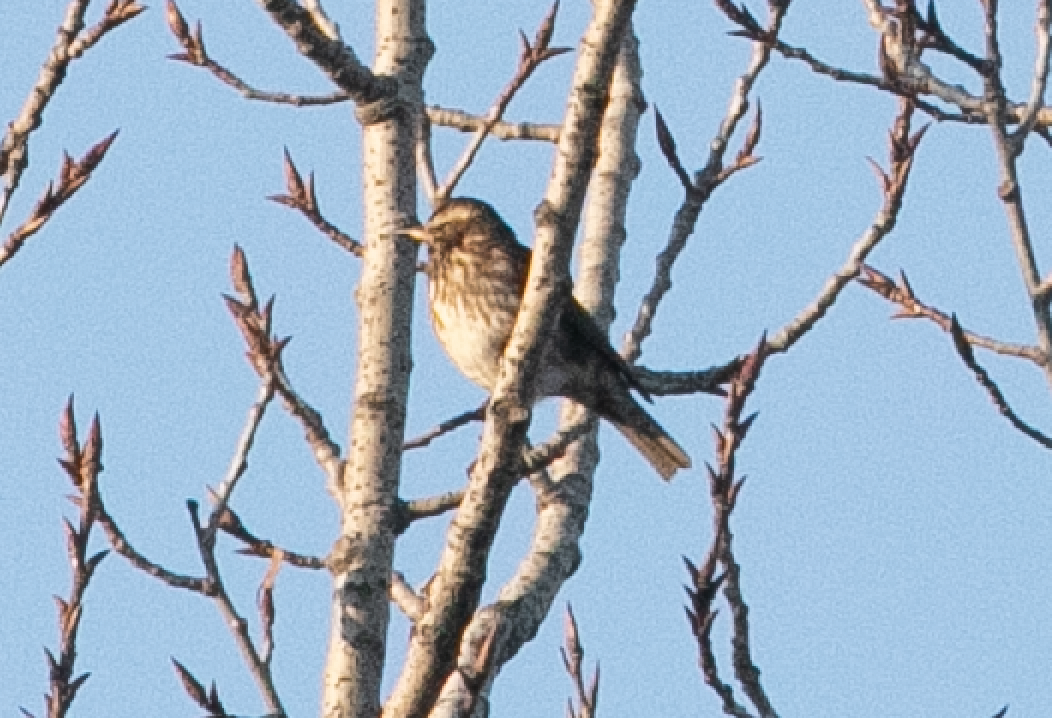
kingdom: Animalia
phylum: Chordata
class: Aves
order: Passeriformes
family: Turdidae
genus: Turdus
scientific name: Turdus iliacus
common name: Redwing
